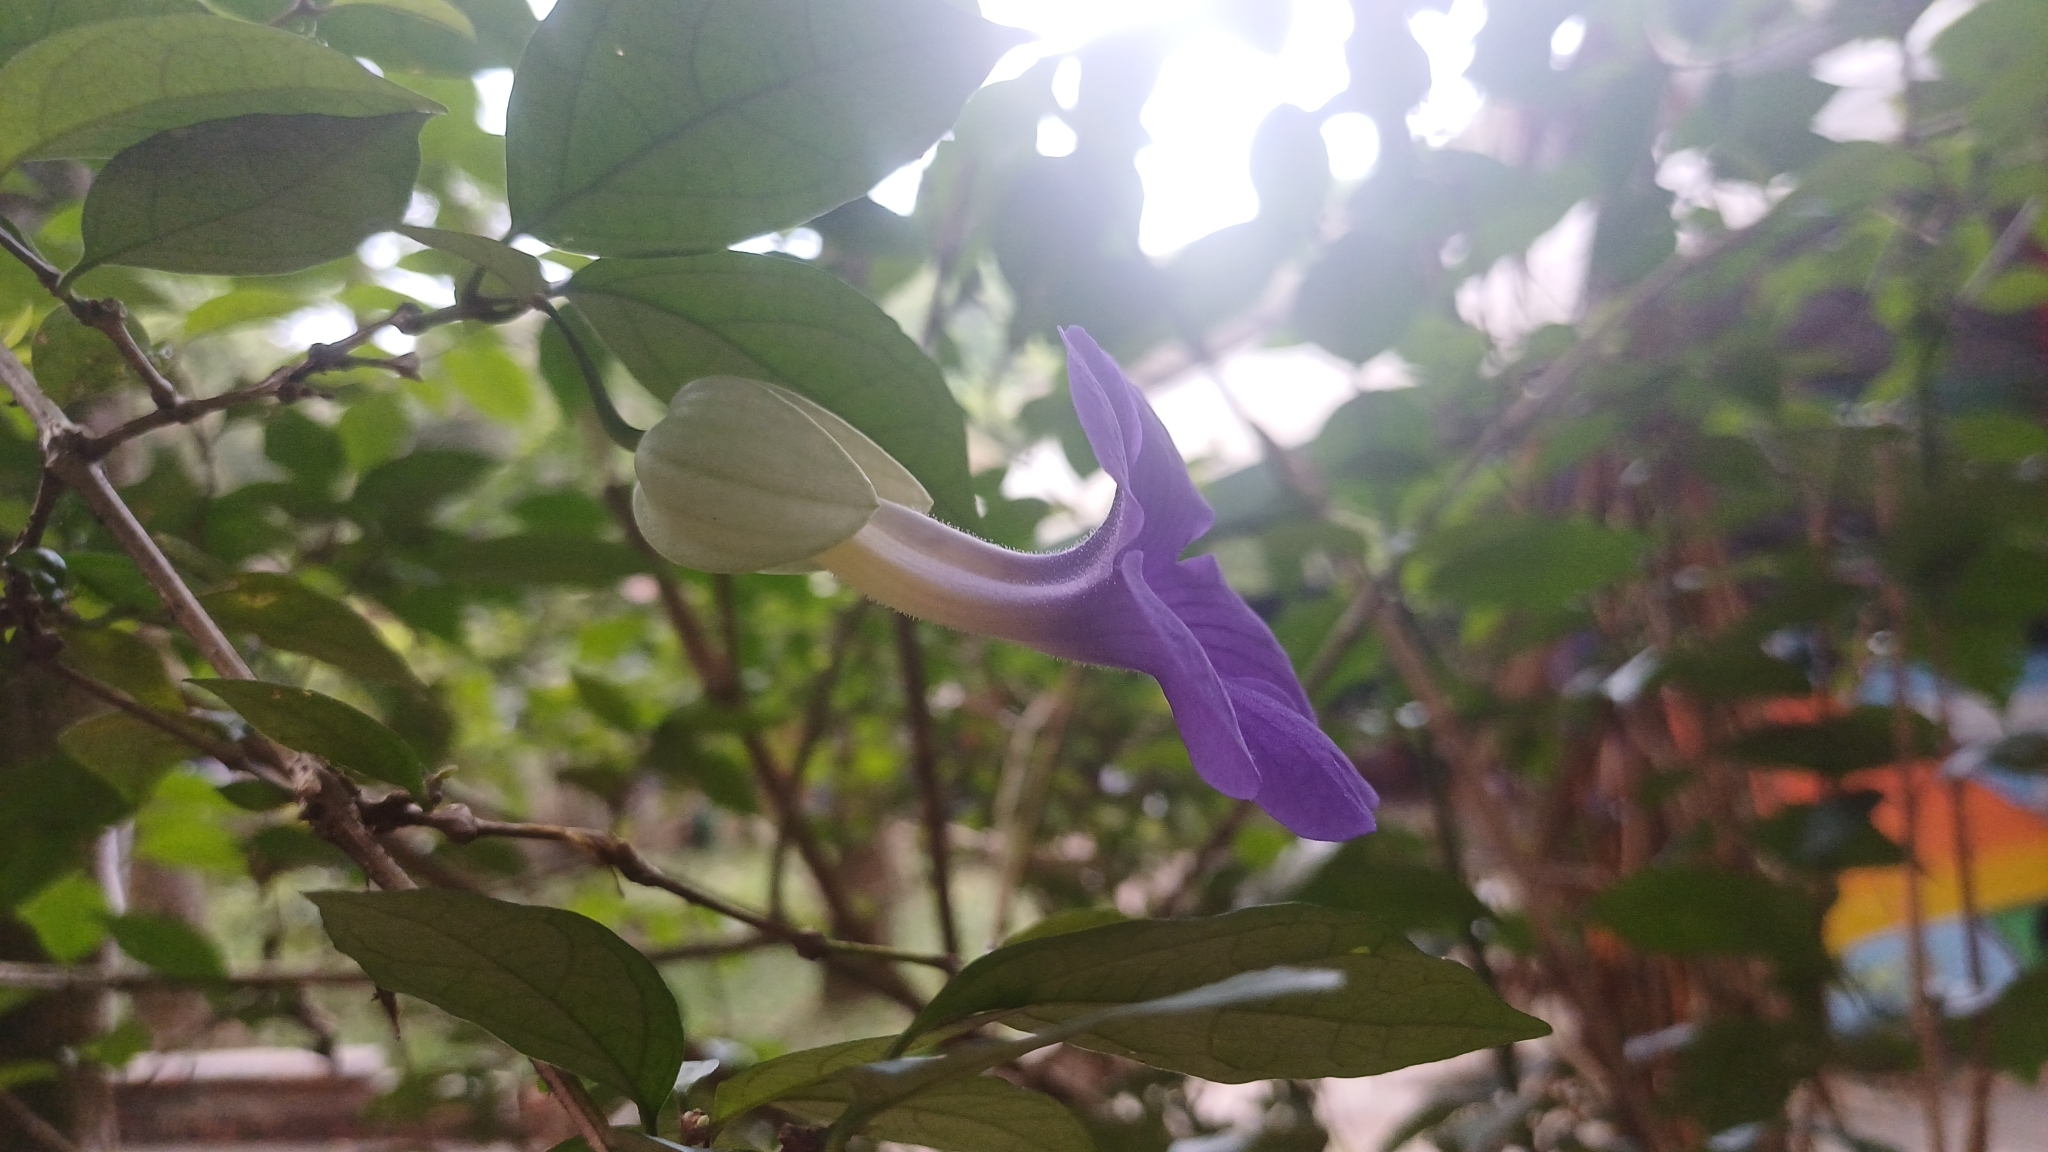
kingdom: Plantae
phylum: Tracheophyta
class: Magnoliopsida
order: Lamiales
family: Acanthaceae
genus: Thunbergia
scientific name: Thunbergia erecta
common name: Bush clockvine
